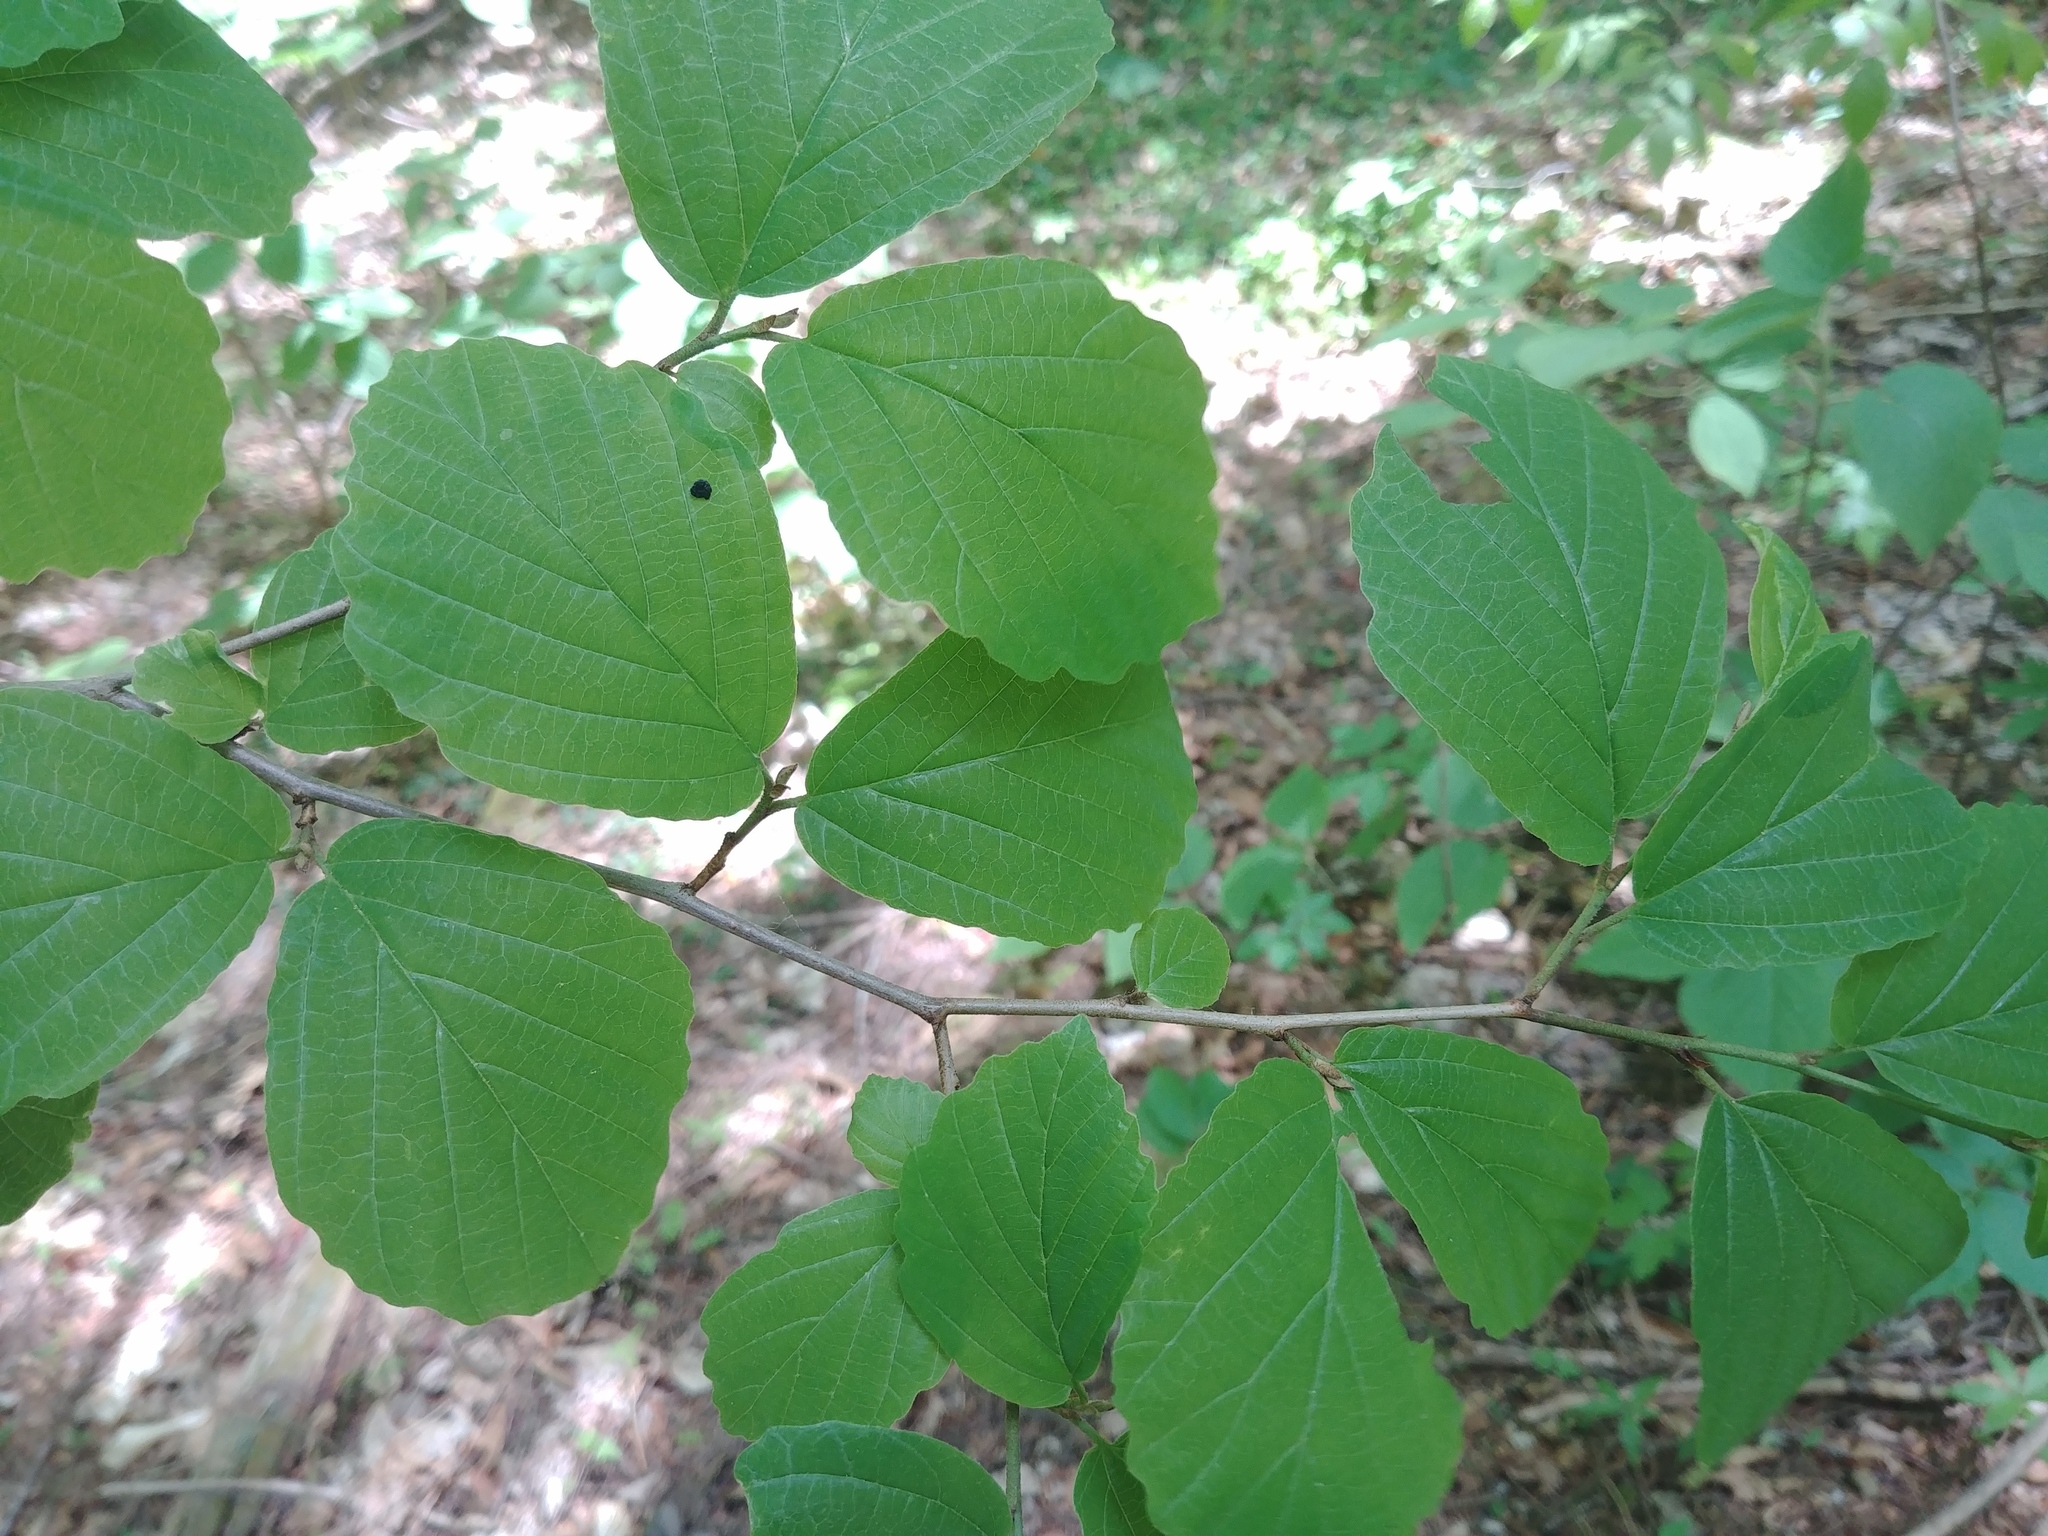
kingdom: Plantae
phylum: Tracheophyta
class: Magnoliopsida
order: Saxifragales
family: Hamamelidaceae
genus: Hamamelis
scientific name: Hamamelis virginiana
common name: Witch-hazel
